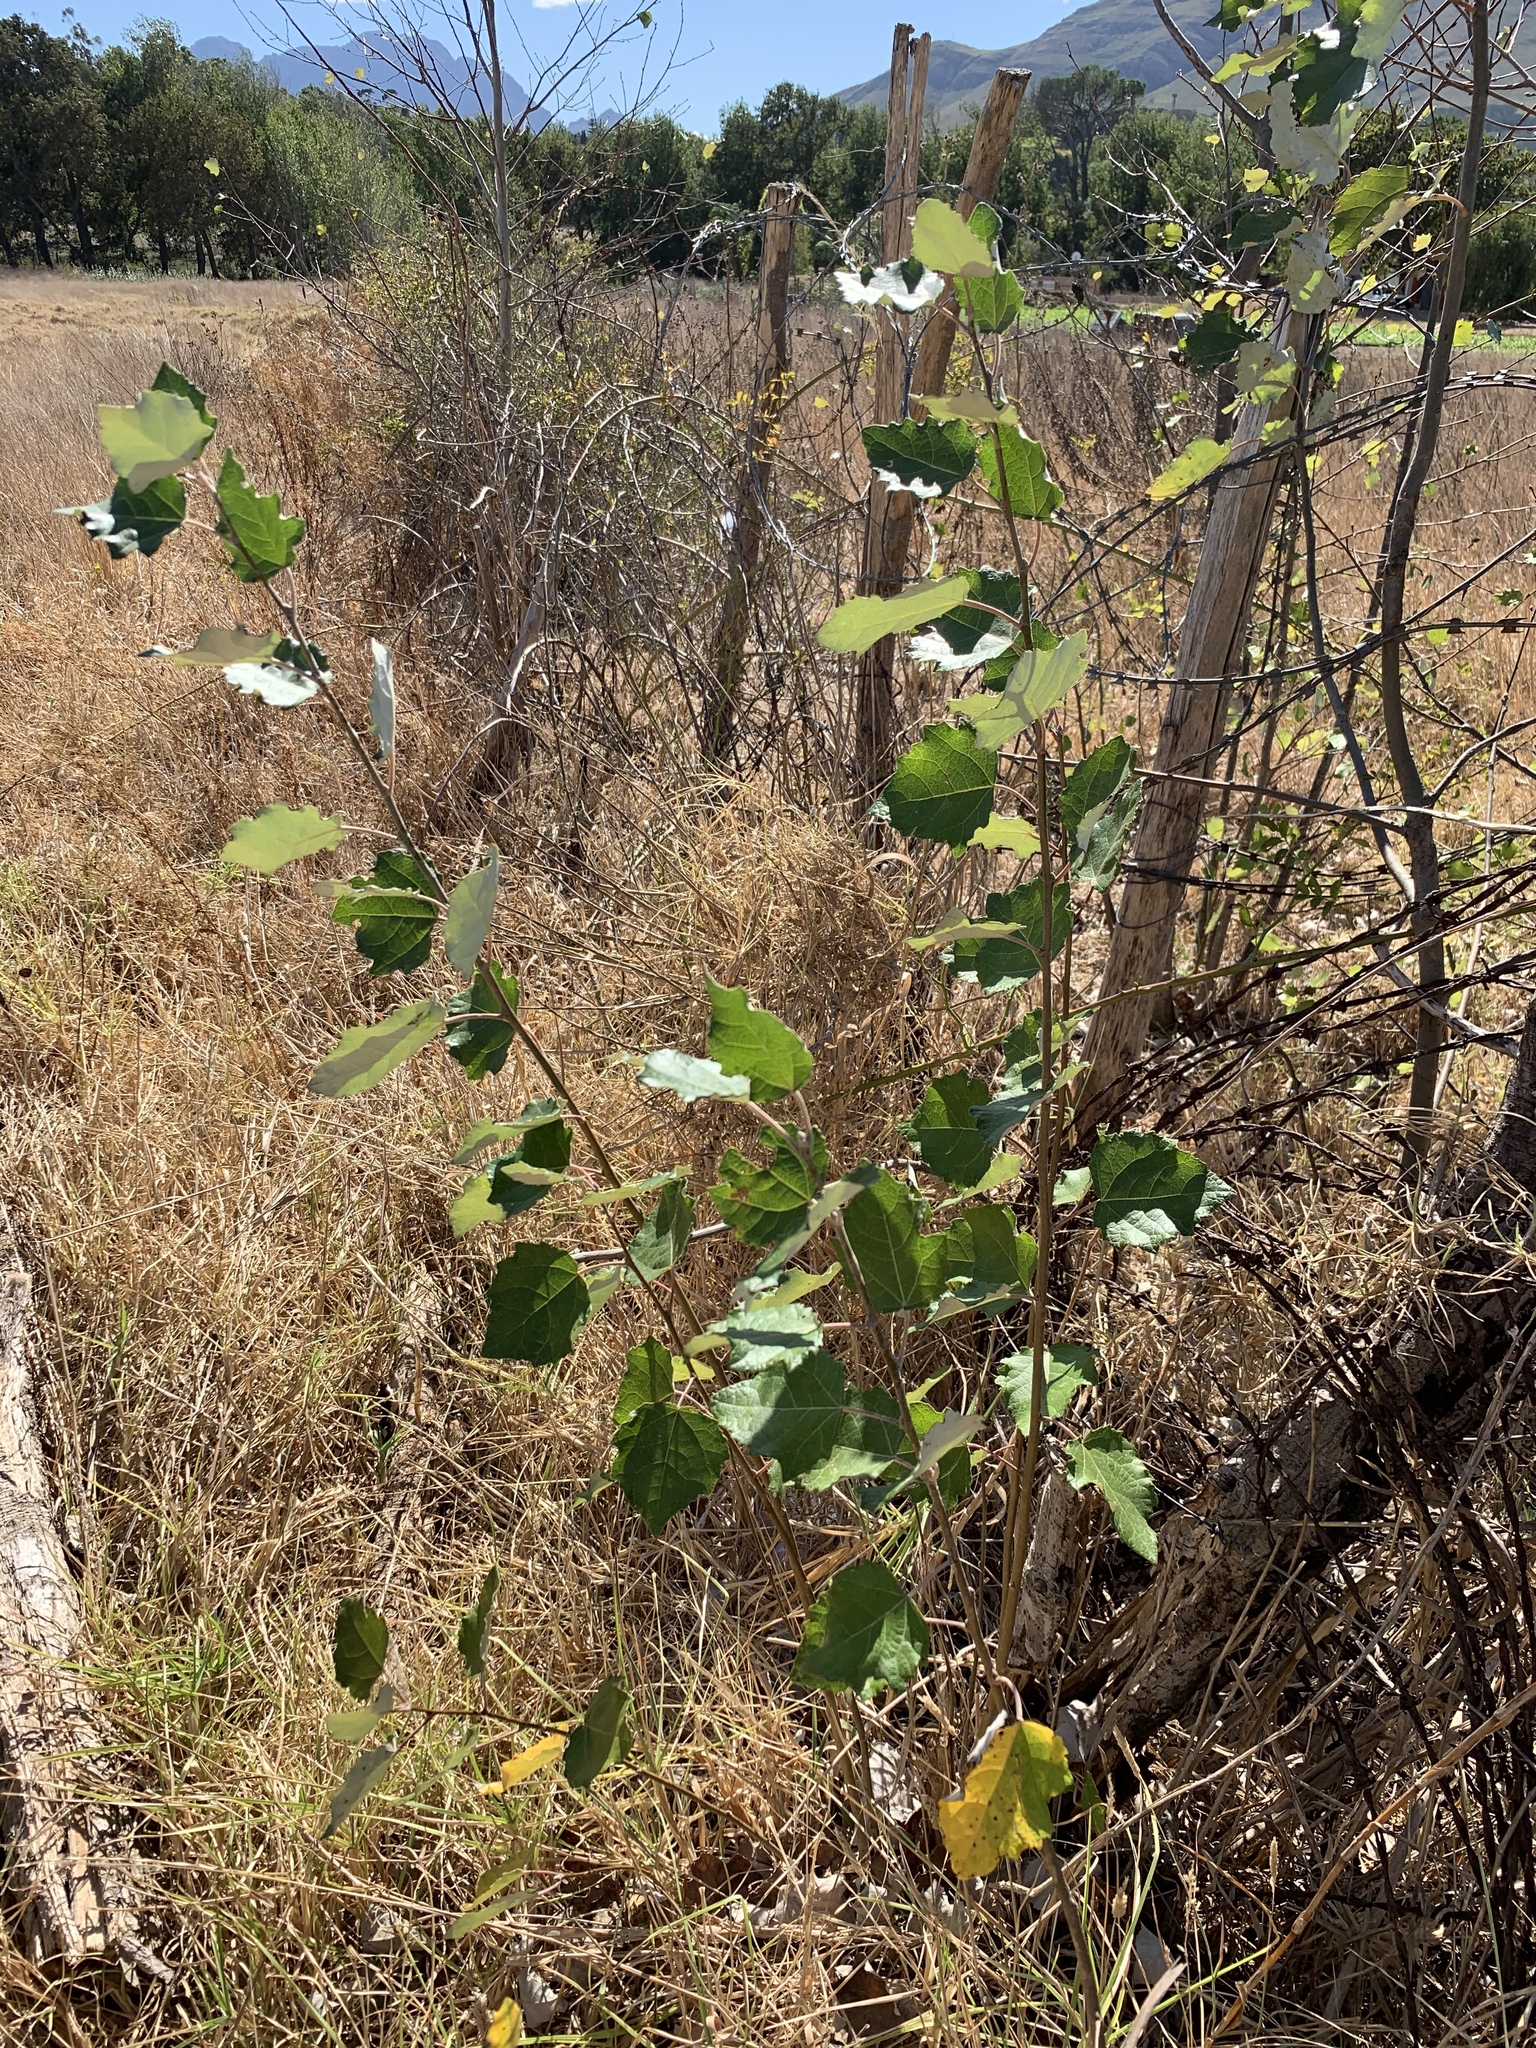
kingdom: Plantae
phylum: Tracheophyta
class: Magnoliopsida
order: Malpighiales
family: Salicaceae
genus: Populus
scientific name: Populus canescens
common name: Gray poplar
